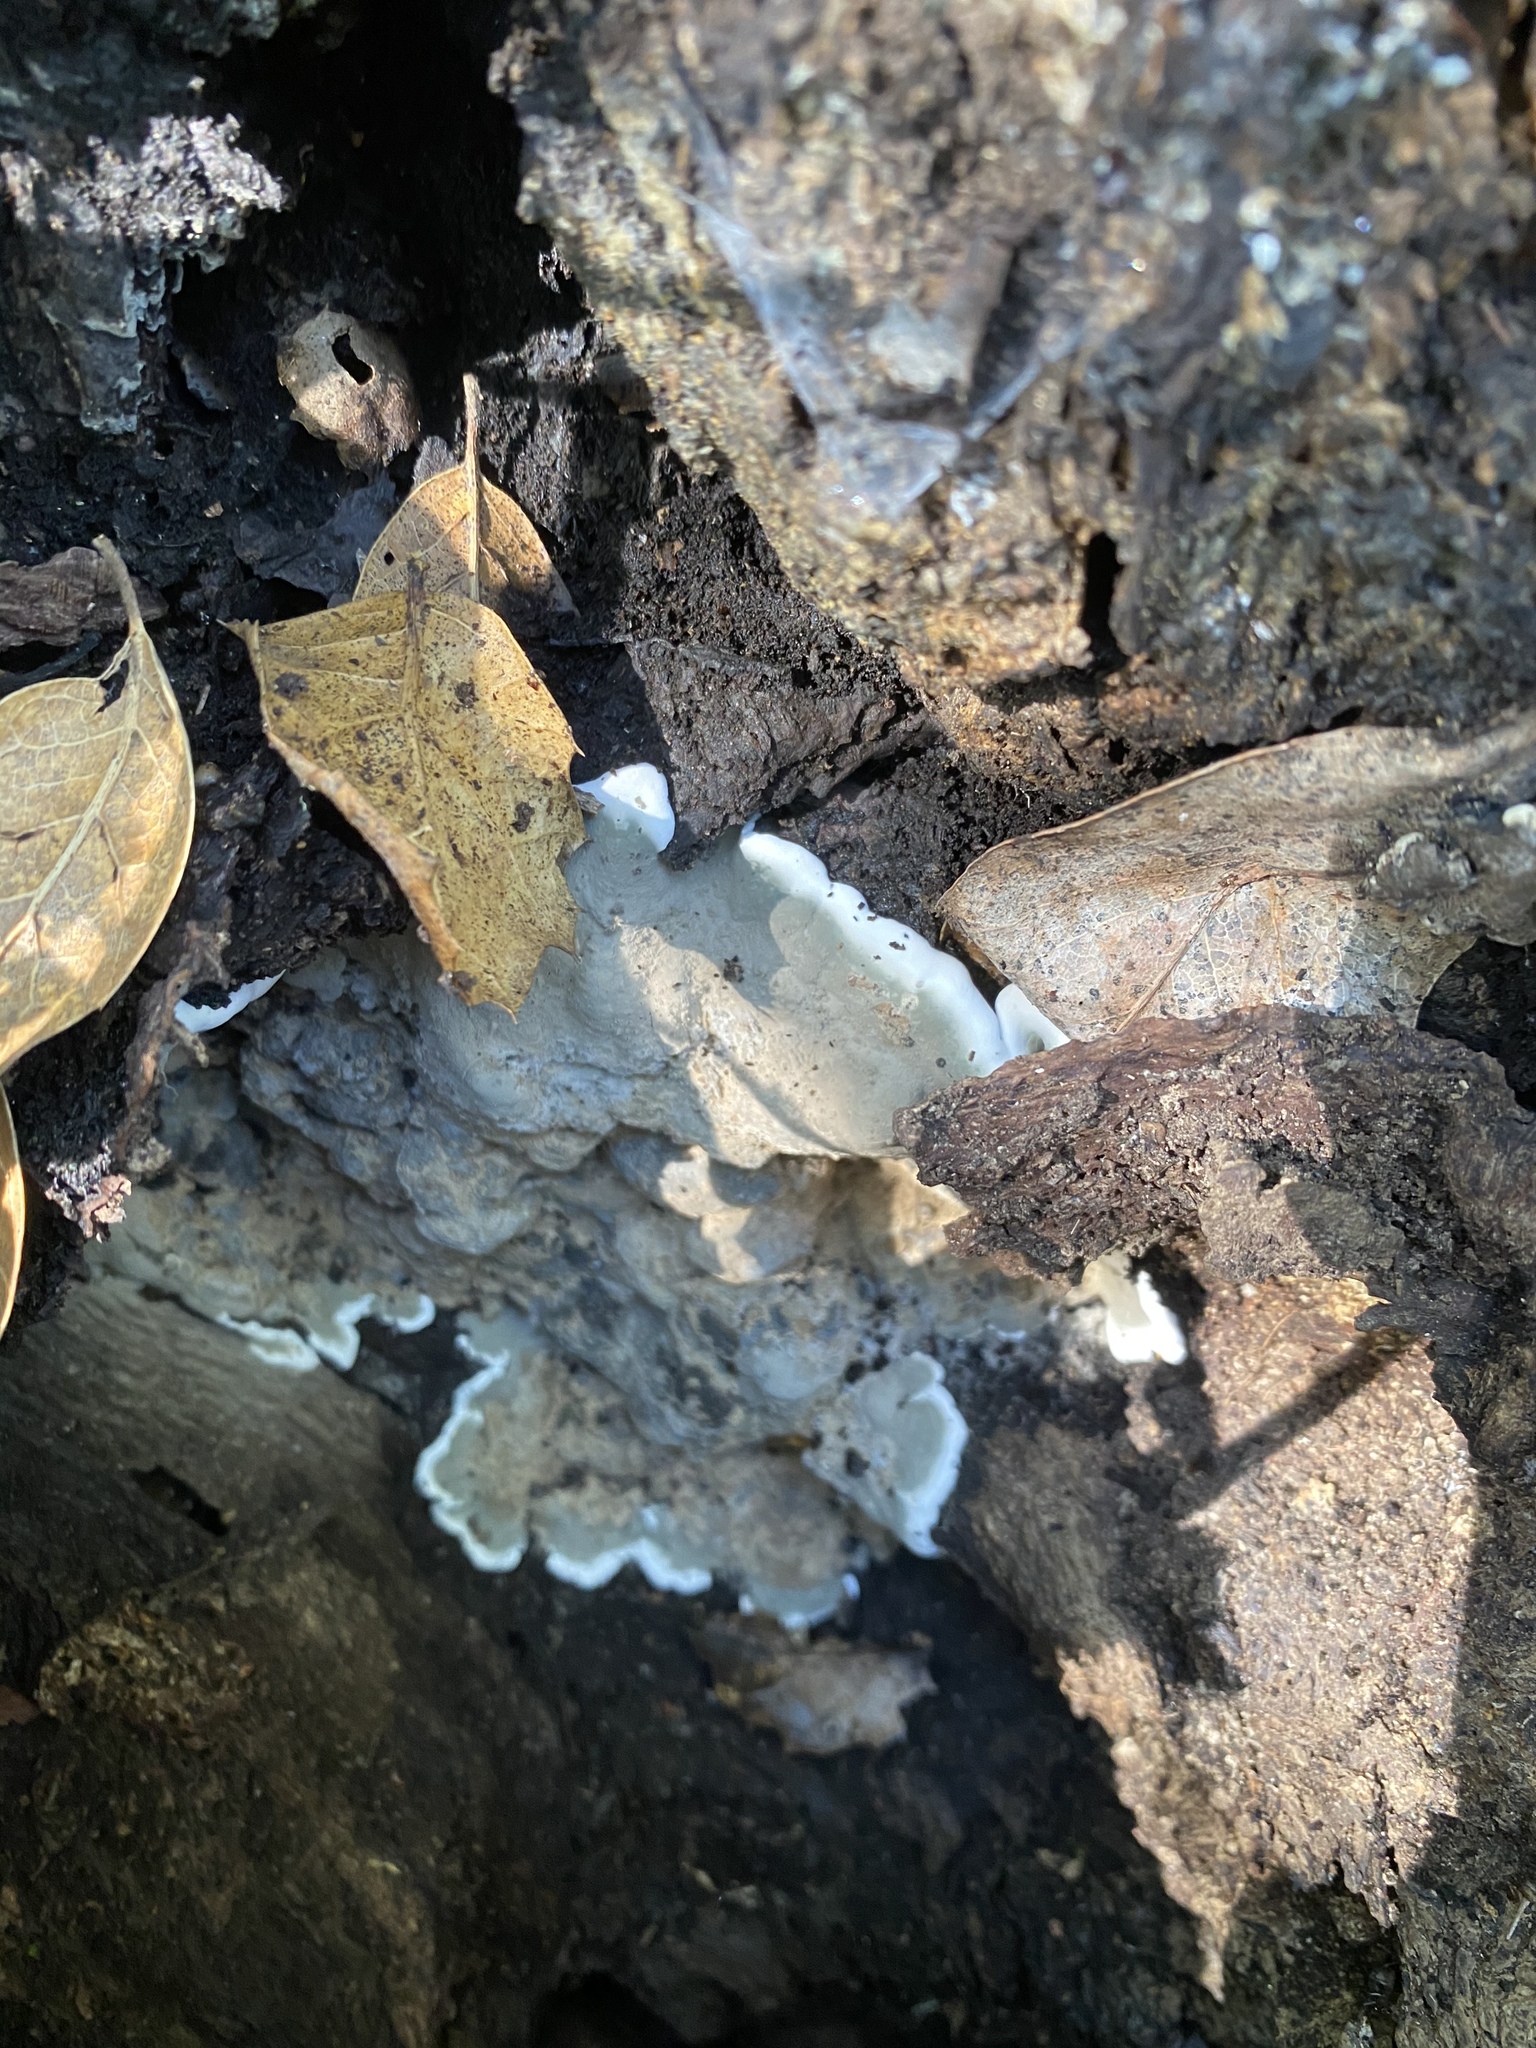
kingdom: Fungi
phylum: Ascomycota
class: Sordariomycetes
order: Xylariales
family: Xylariaceae
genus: Kretzschmaria
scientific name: Kretzschmaria deusta
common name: Brittle cinder
